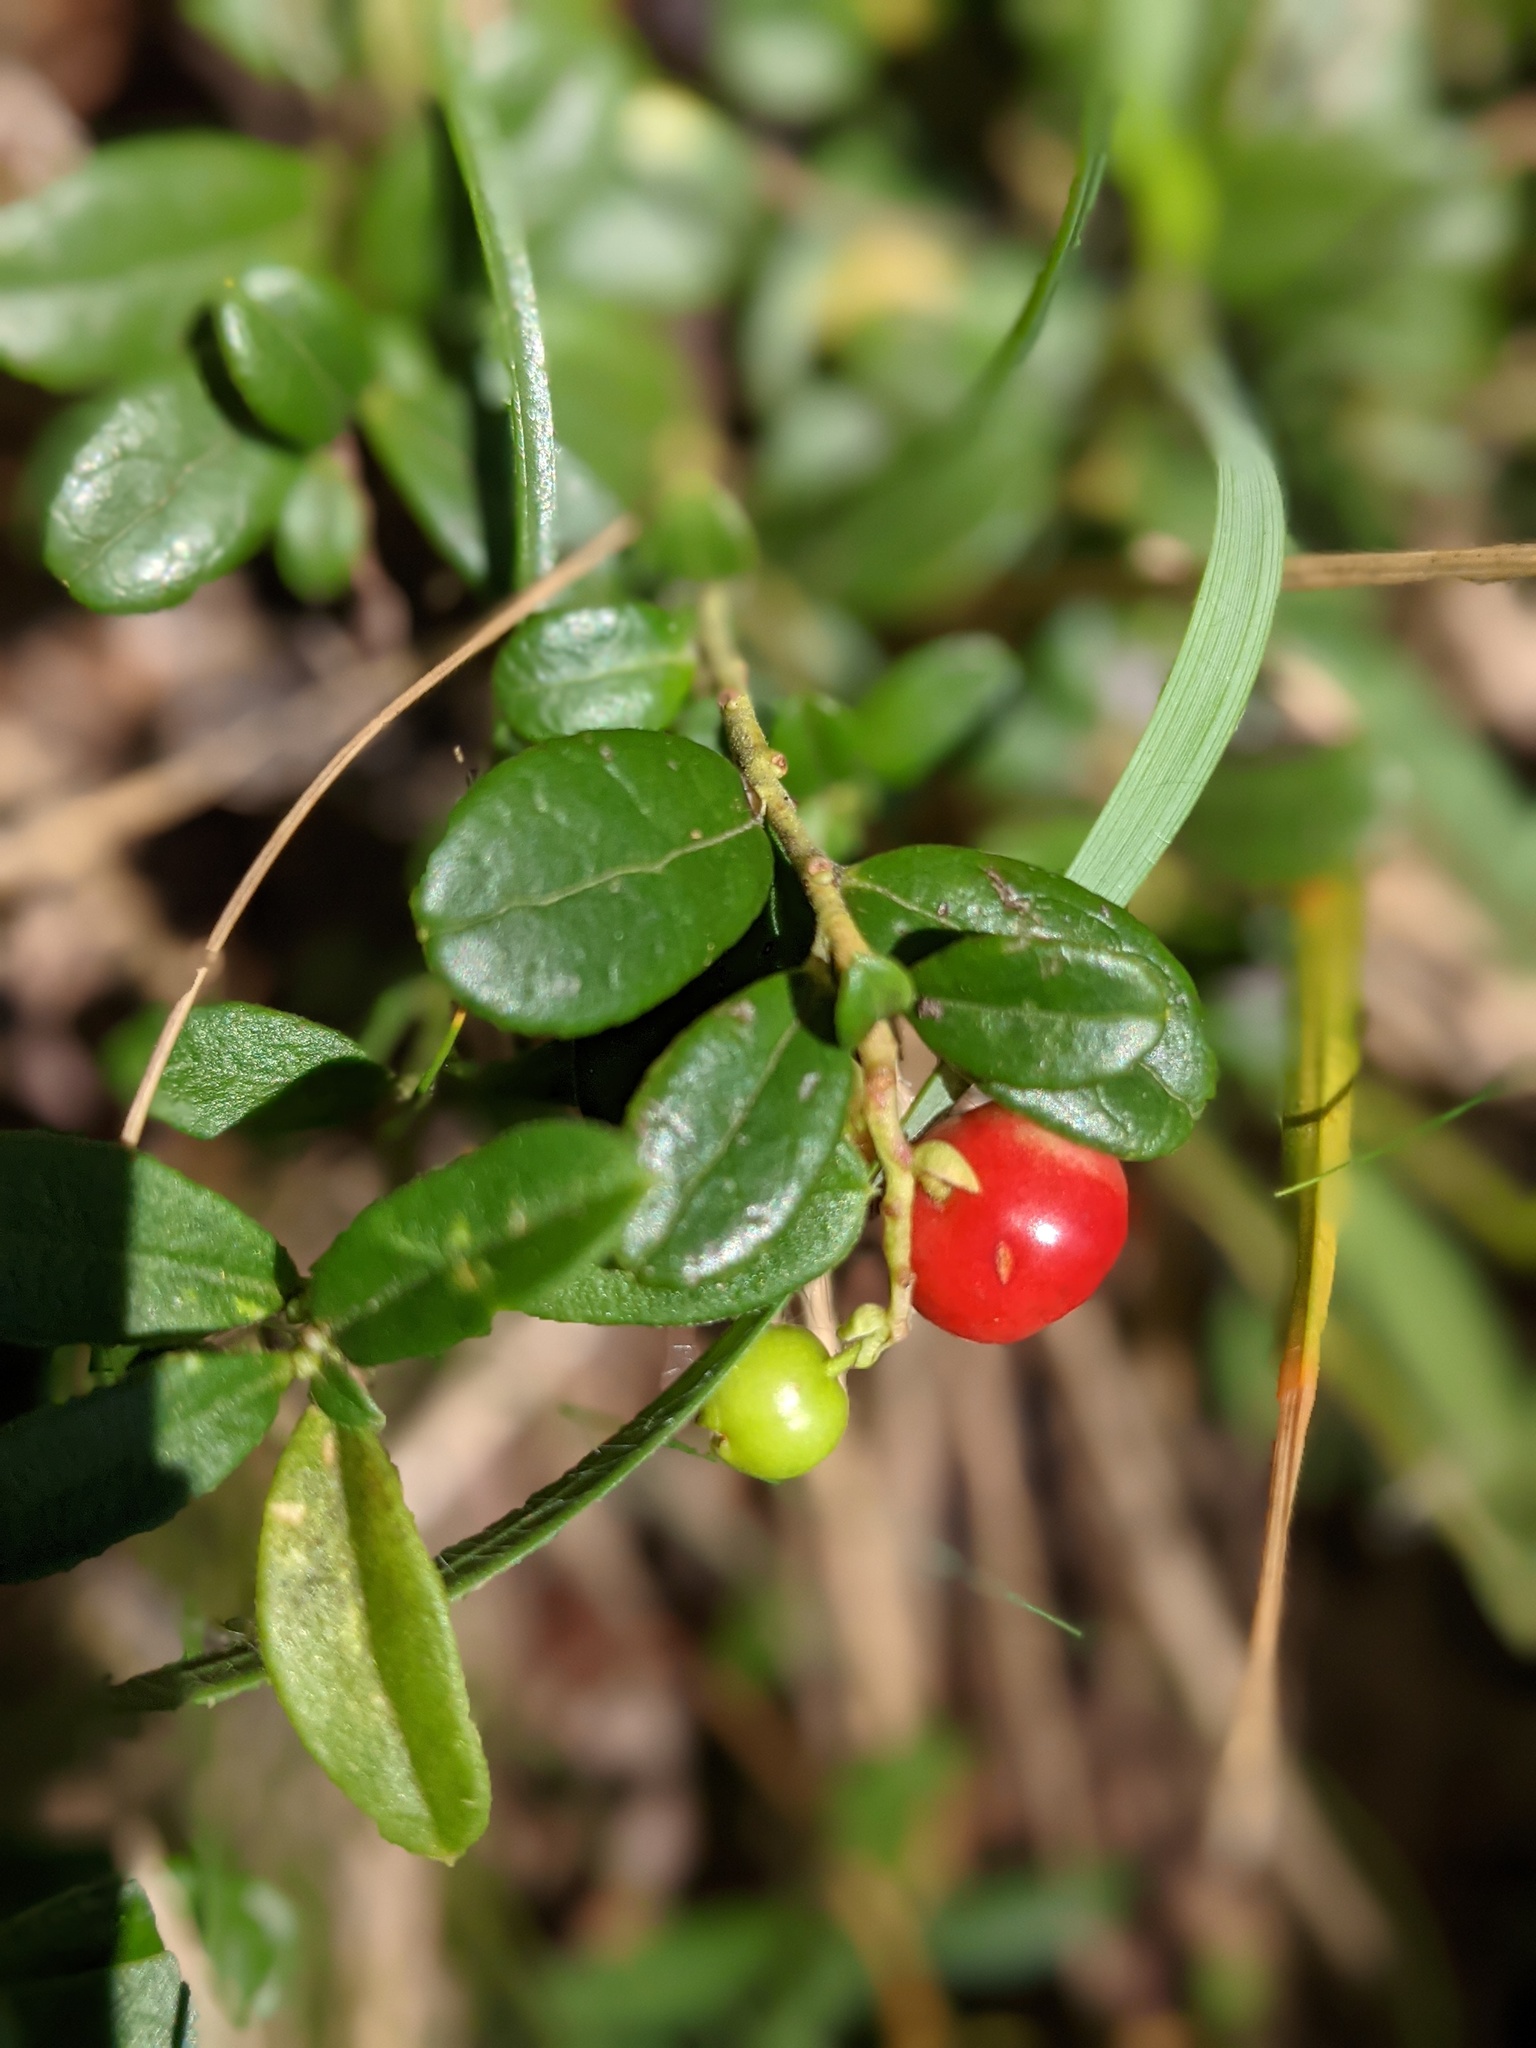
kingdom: Plantae
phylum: Tracheophyta
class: Magnoliopsida
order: Ericales
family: Ericaceae
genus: Vaccinium
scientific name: Vaccinium vitis-idaea
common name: Cowberry
